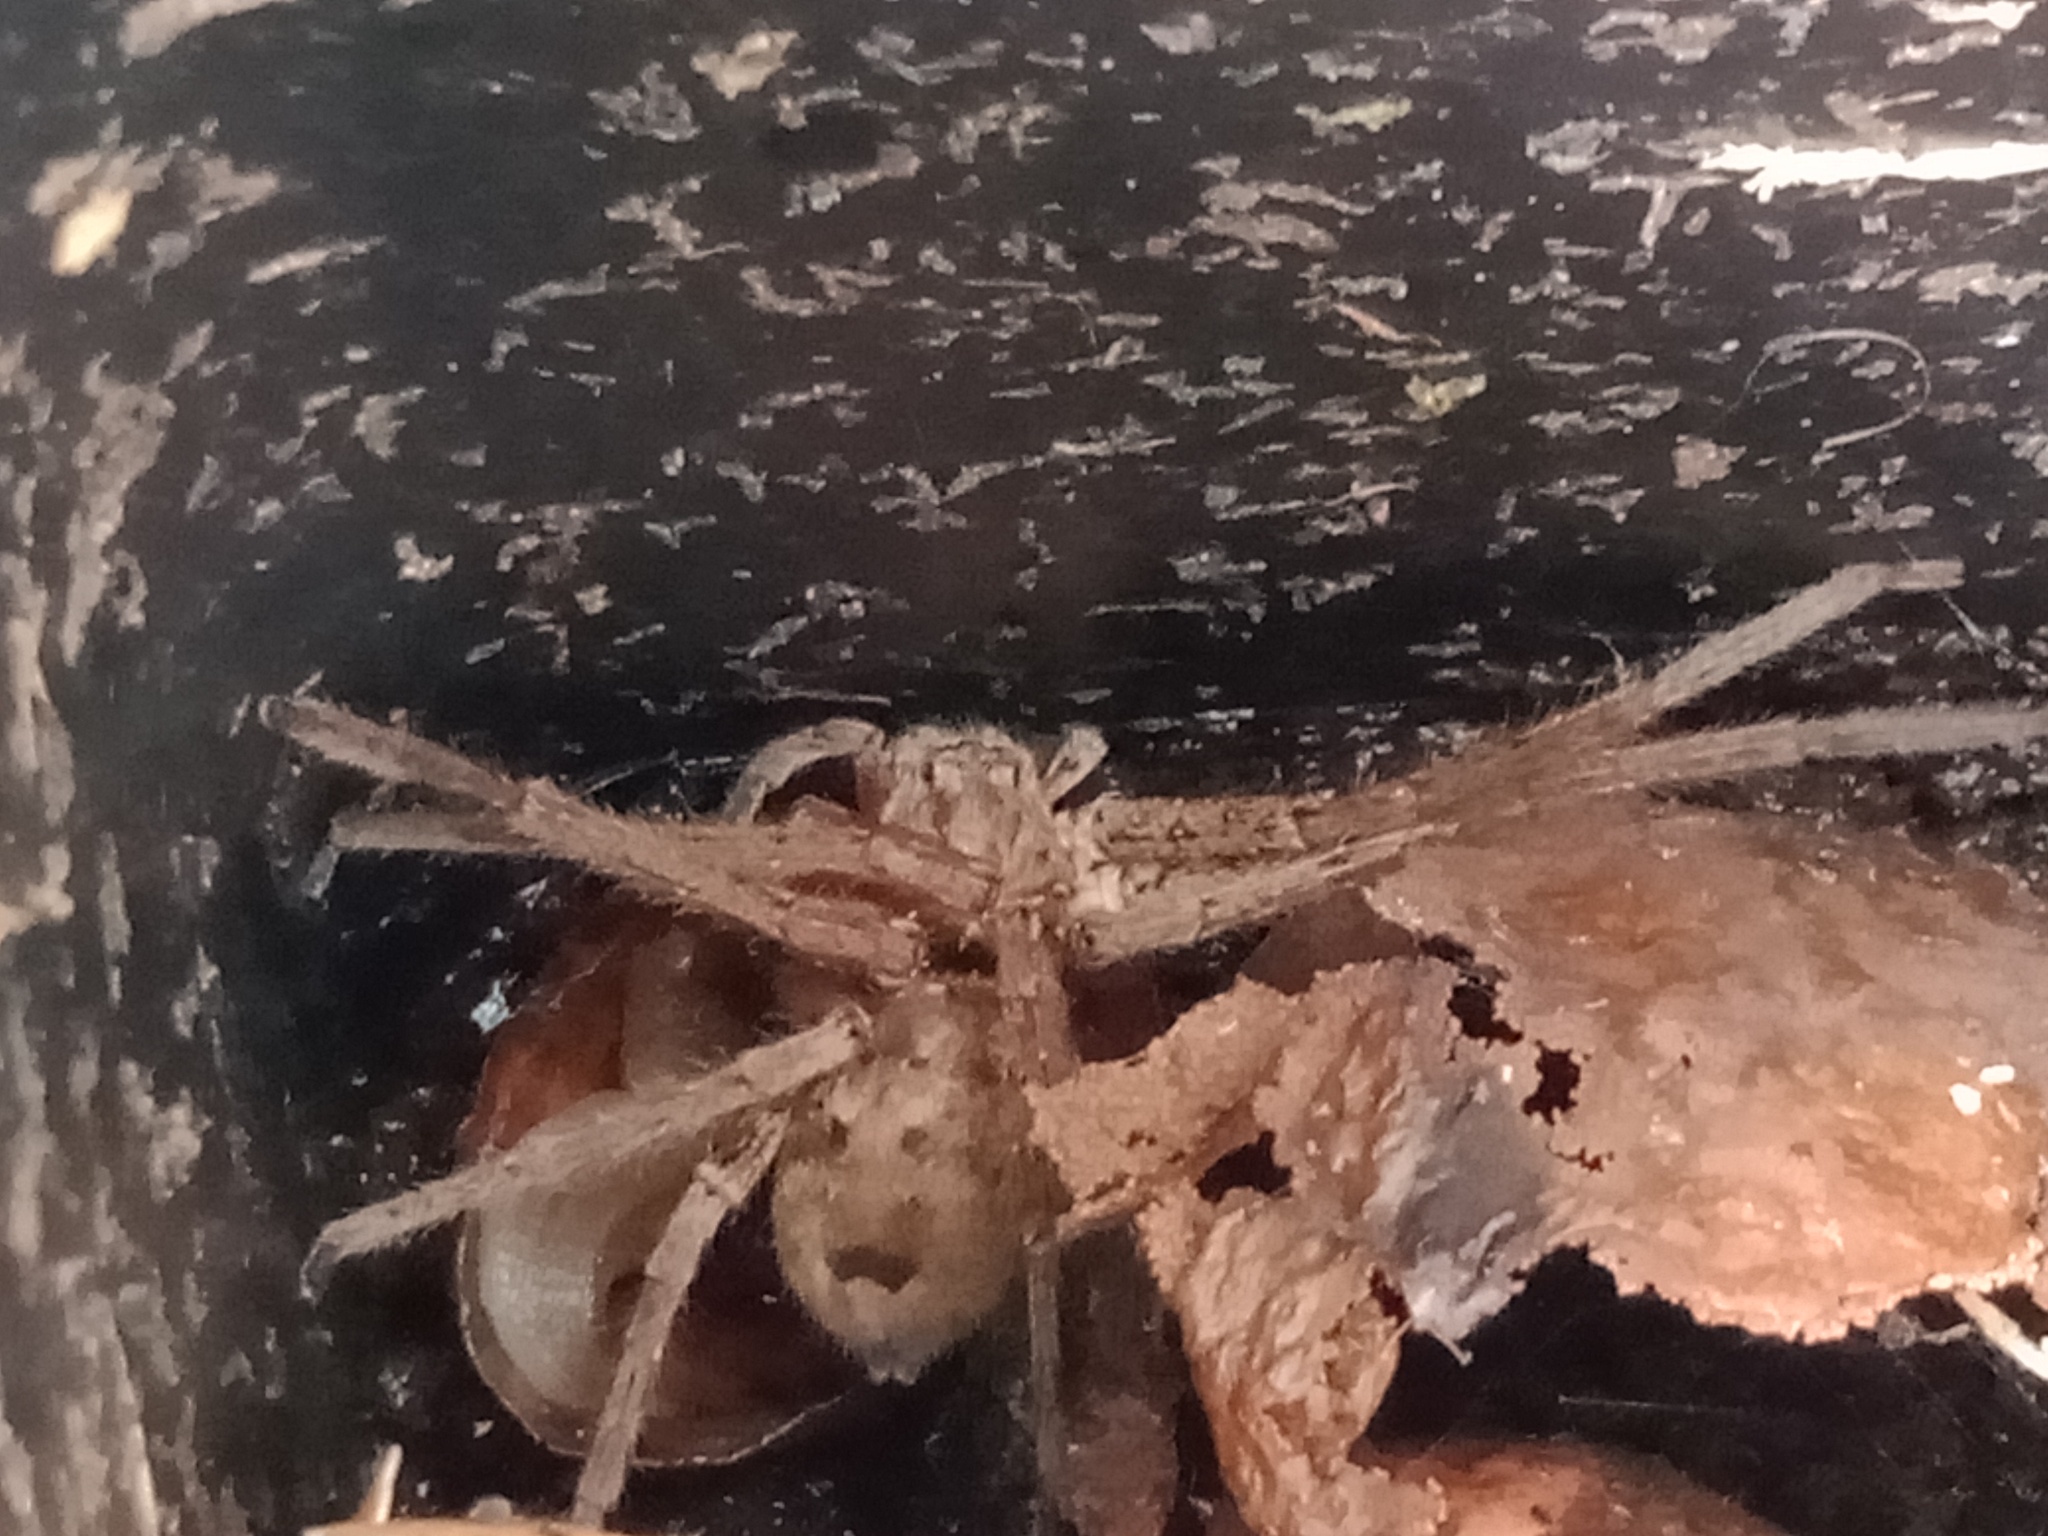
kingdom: Animalia
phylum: Arthropoda
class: Arachnida
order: Araneae
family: Sparassidae
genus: Heteropoda
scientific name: Heteropoda jugulans
